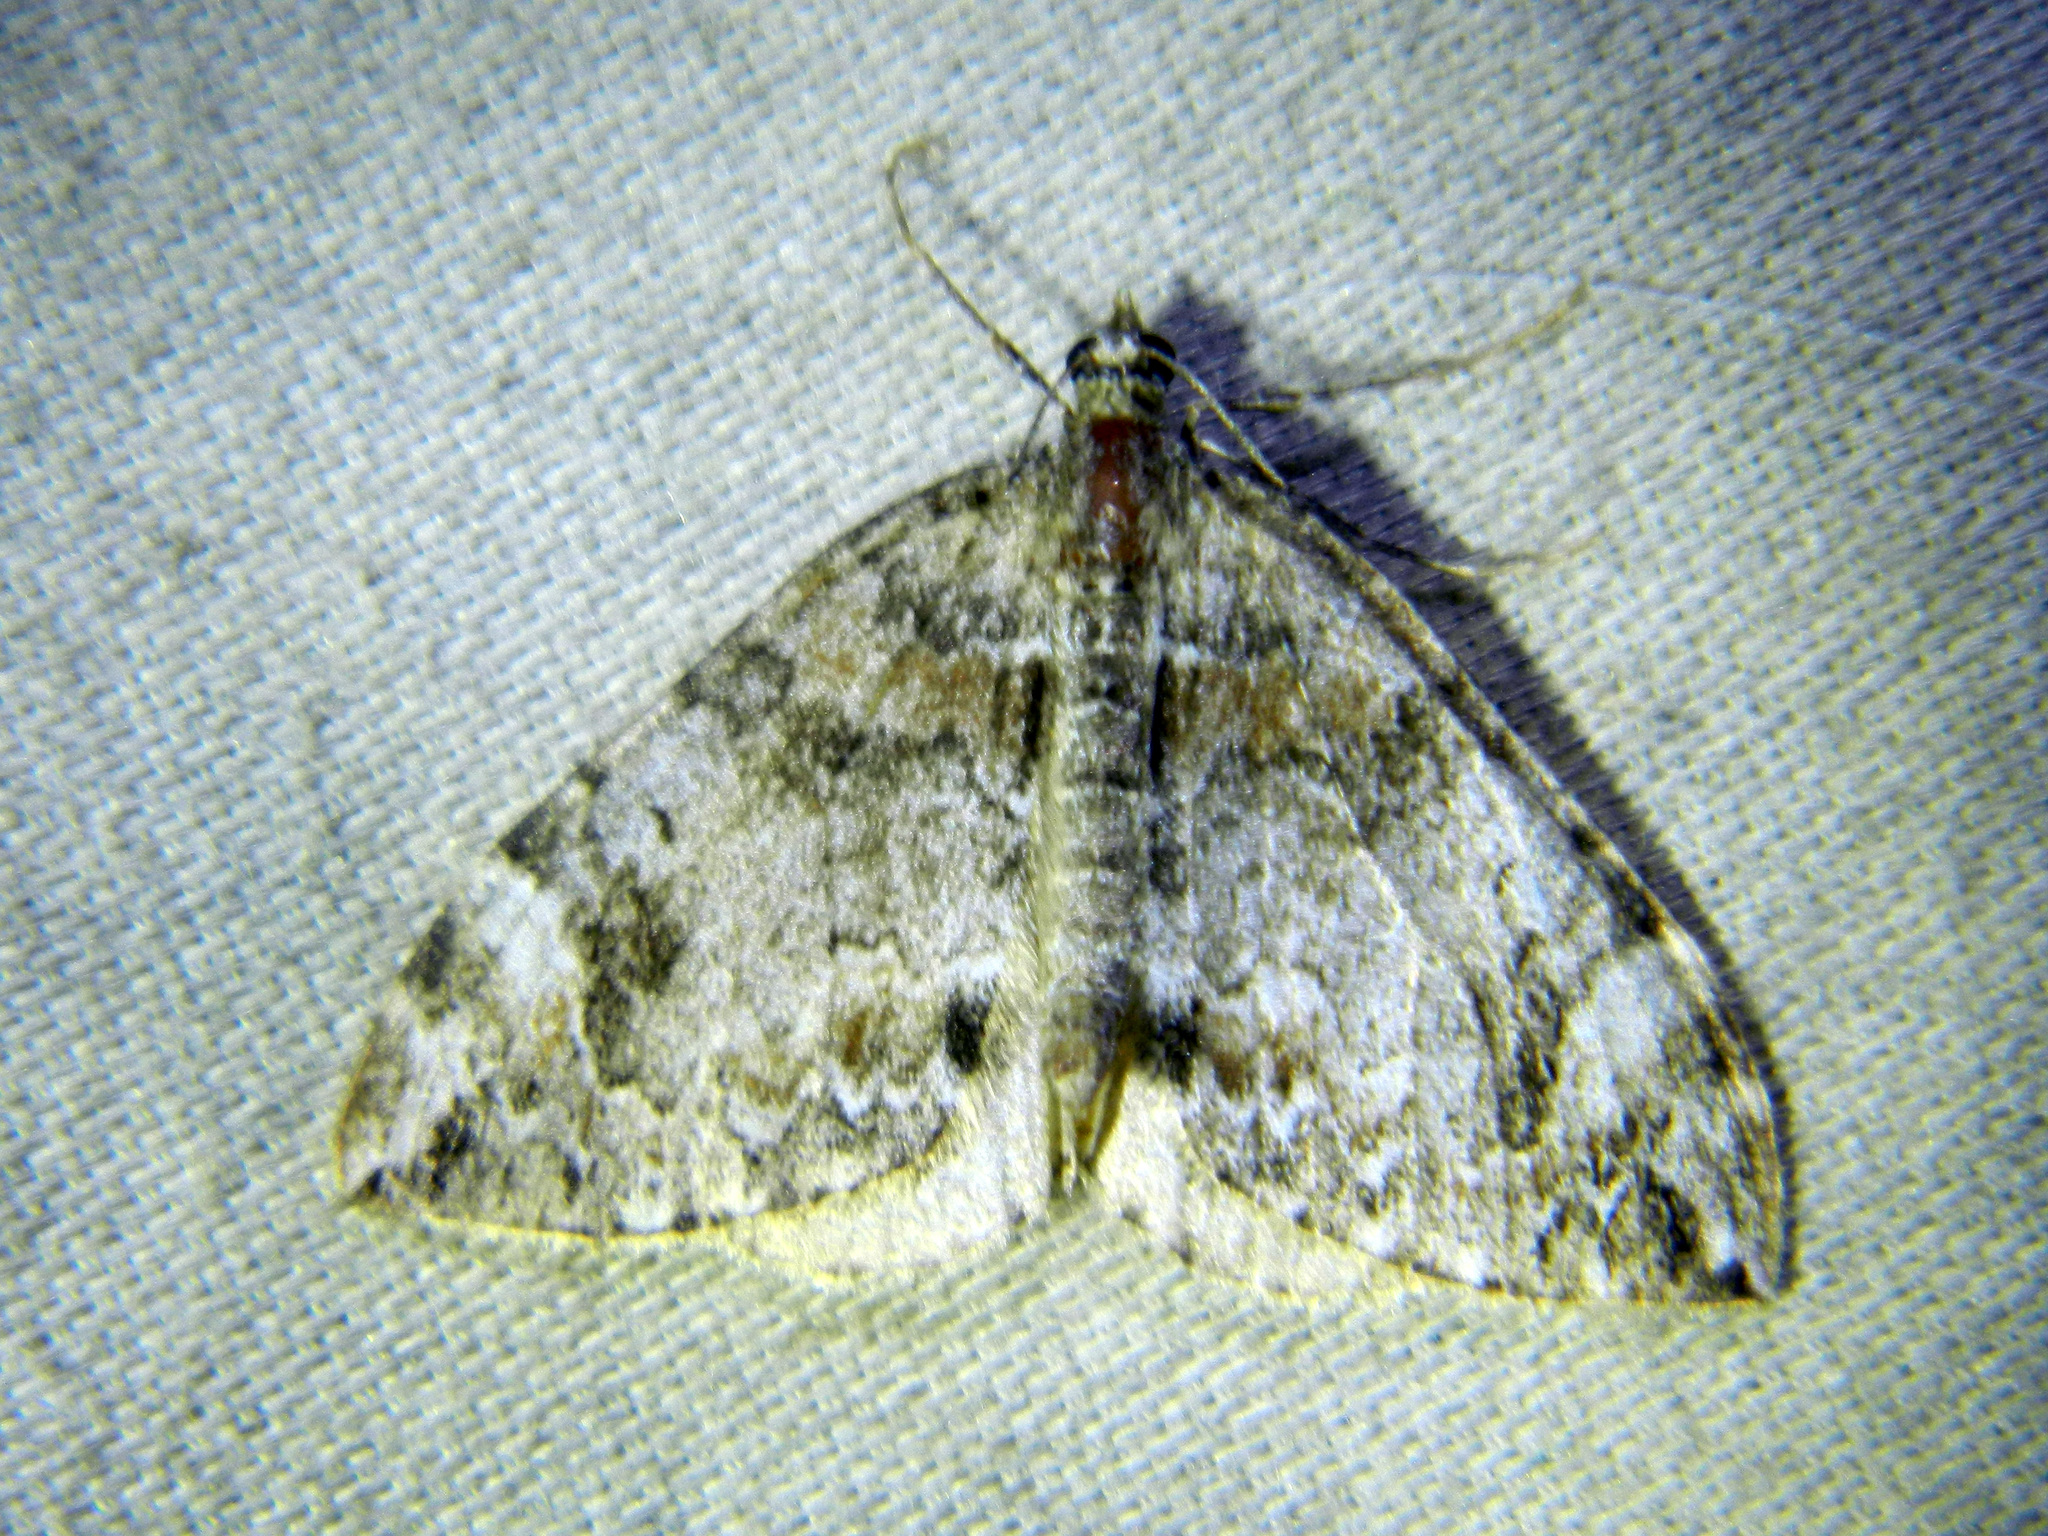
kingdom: Animalia
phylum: Arthropoda
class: Insecta
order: Lepidoptera
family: Geometridae
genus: Dysstroma
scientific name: Dysstroma citrata
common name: Dark marbled carpet
